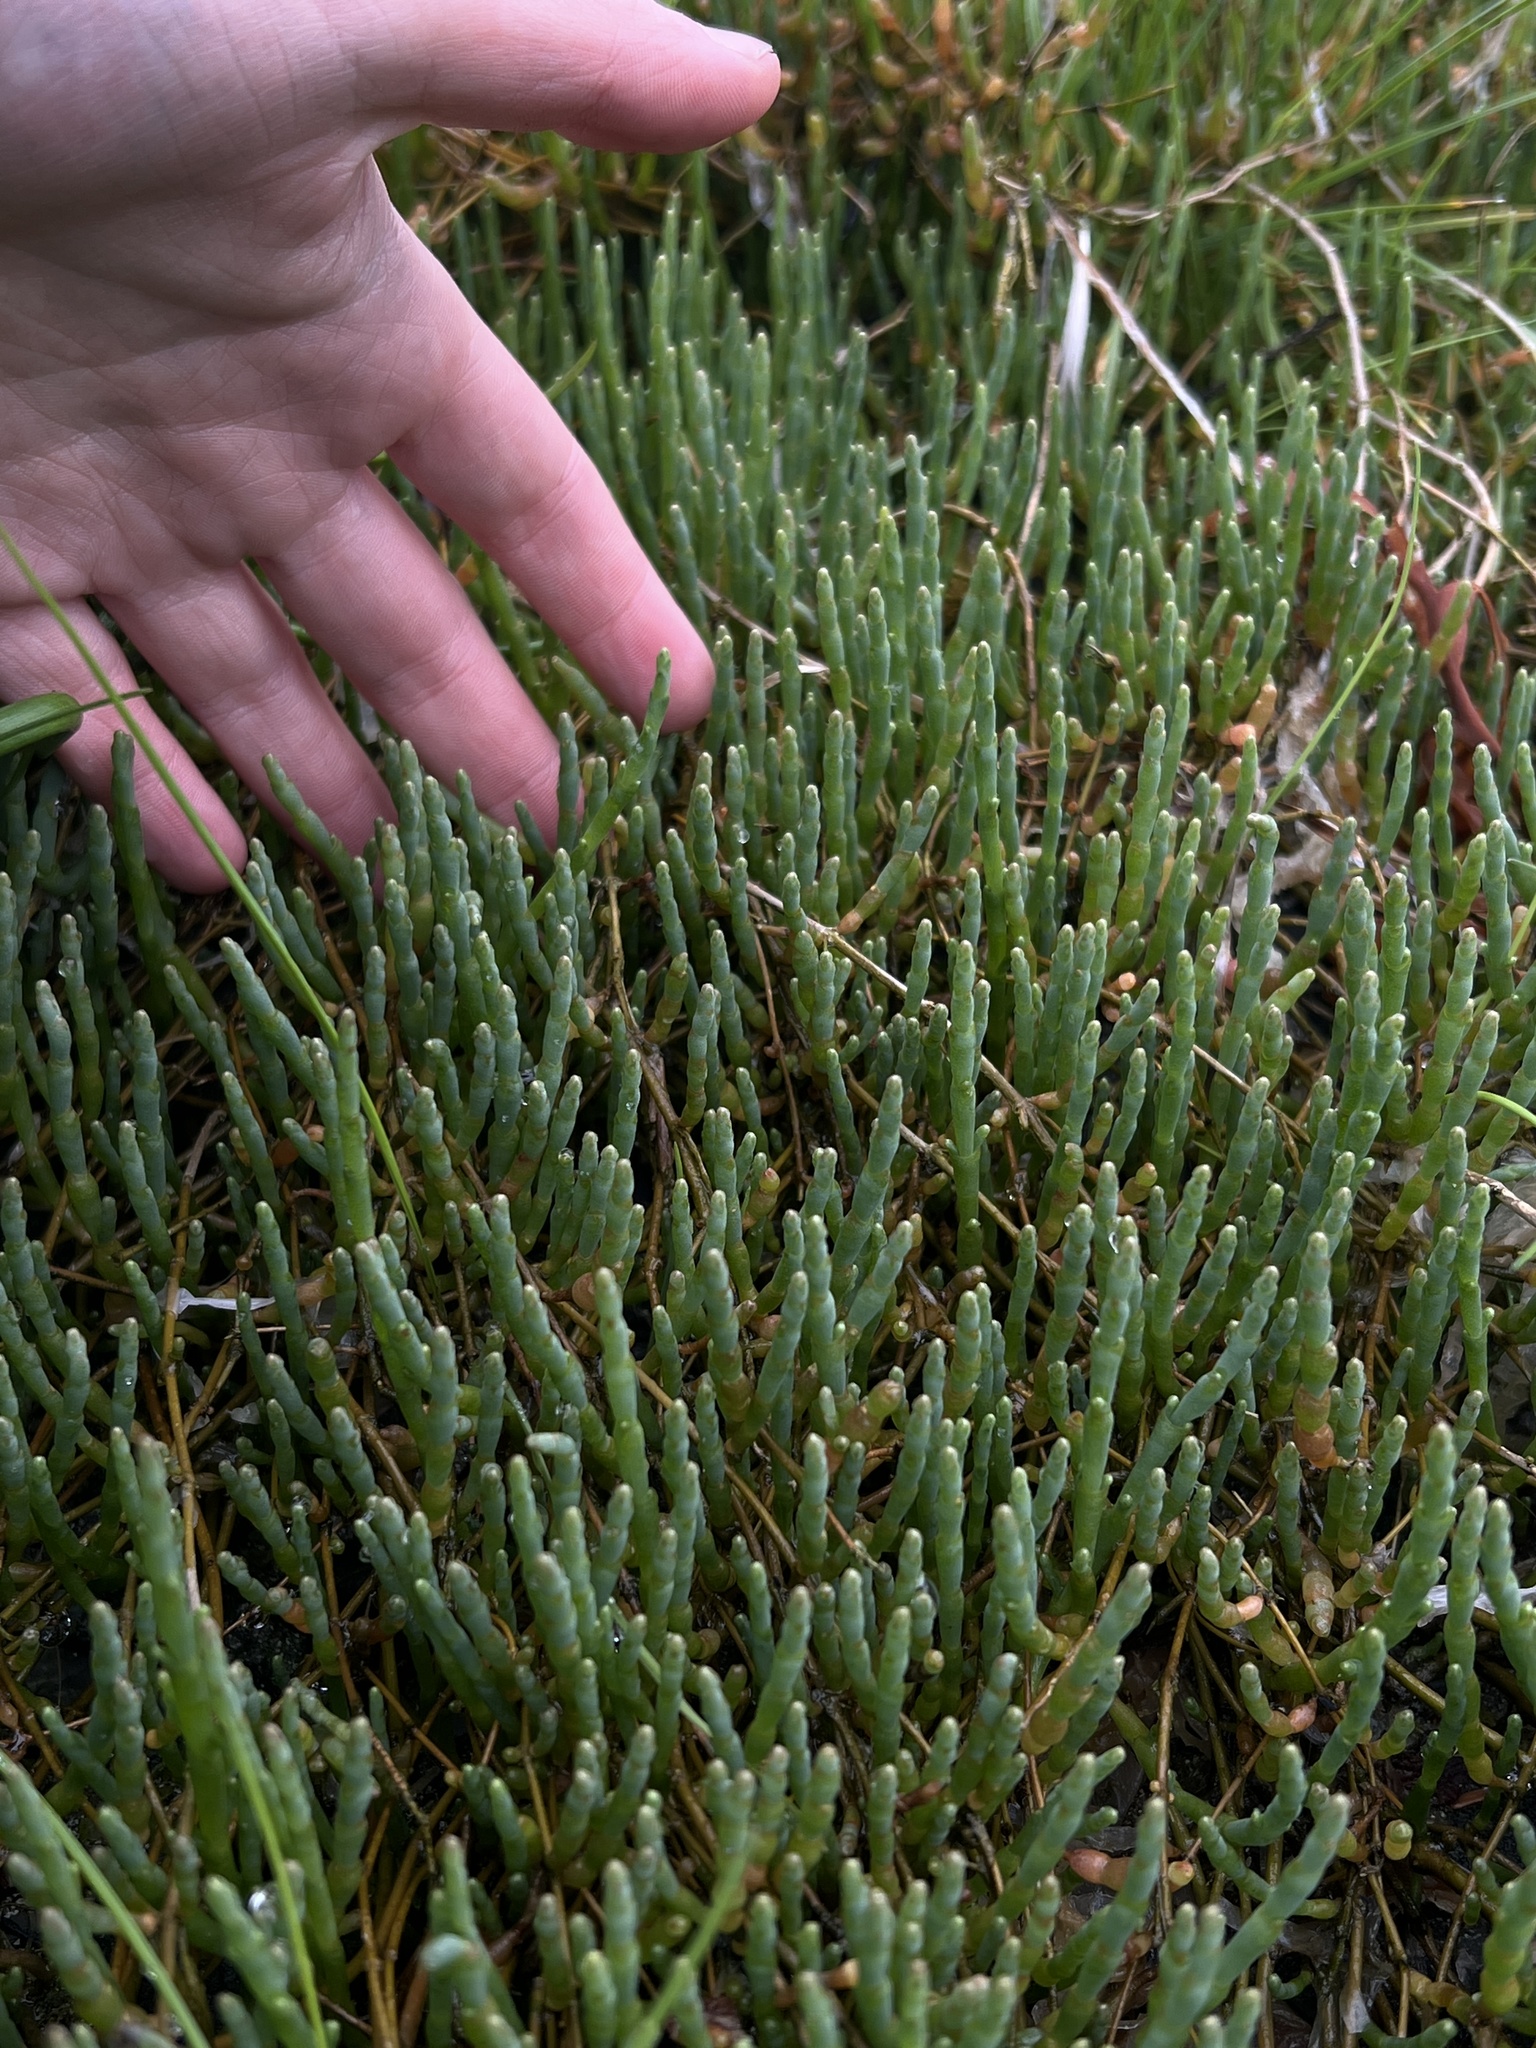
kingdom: Plantae
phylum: Tracheophyta
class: Magnoliopsida
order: Caryophyllales
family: Amaranthaceae
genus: Salicornia
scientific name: Salicornia pacifica
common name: Pacific glasswort
